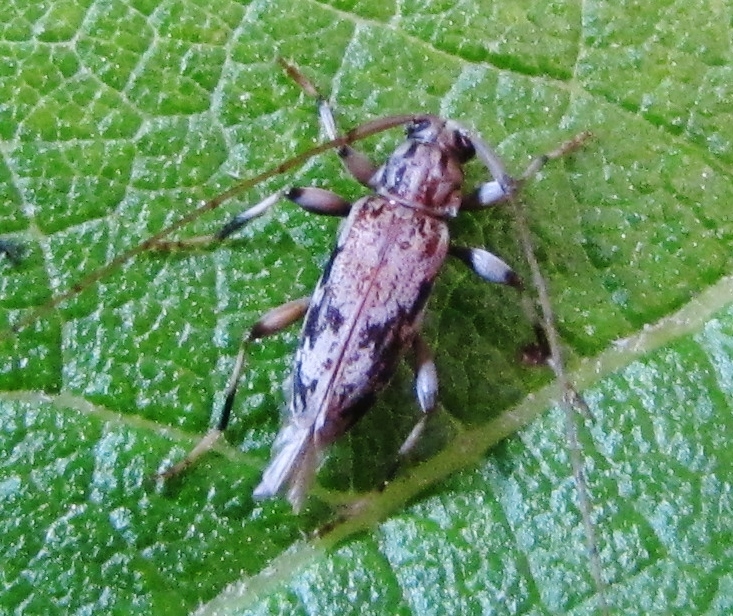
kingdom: Animalia
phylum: Arthropoda
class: Insecta
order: Coleoptera
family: Cerambycidae
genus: Lepturges
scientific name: Lepturges angulatus
